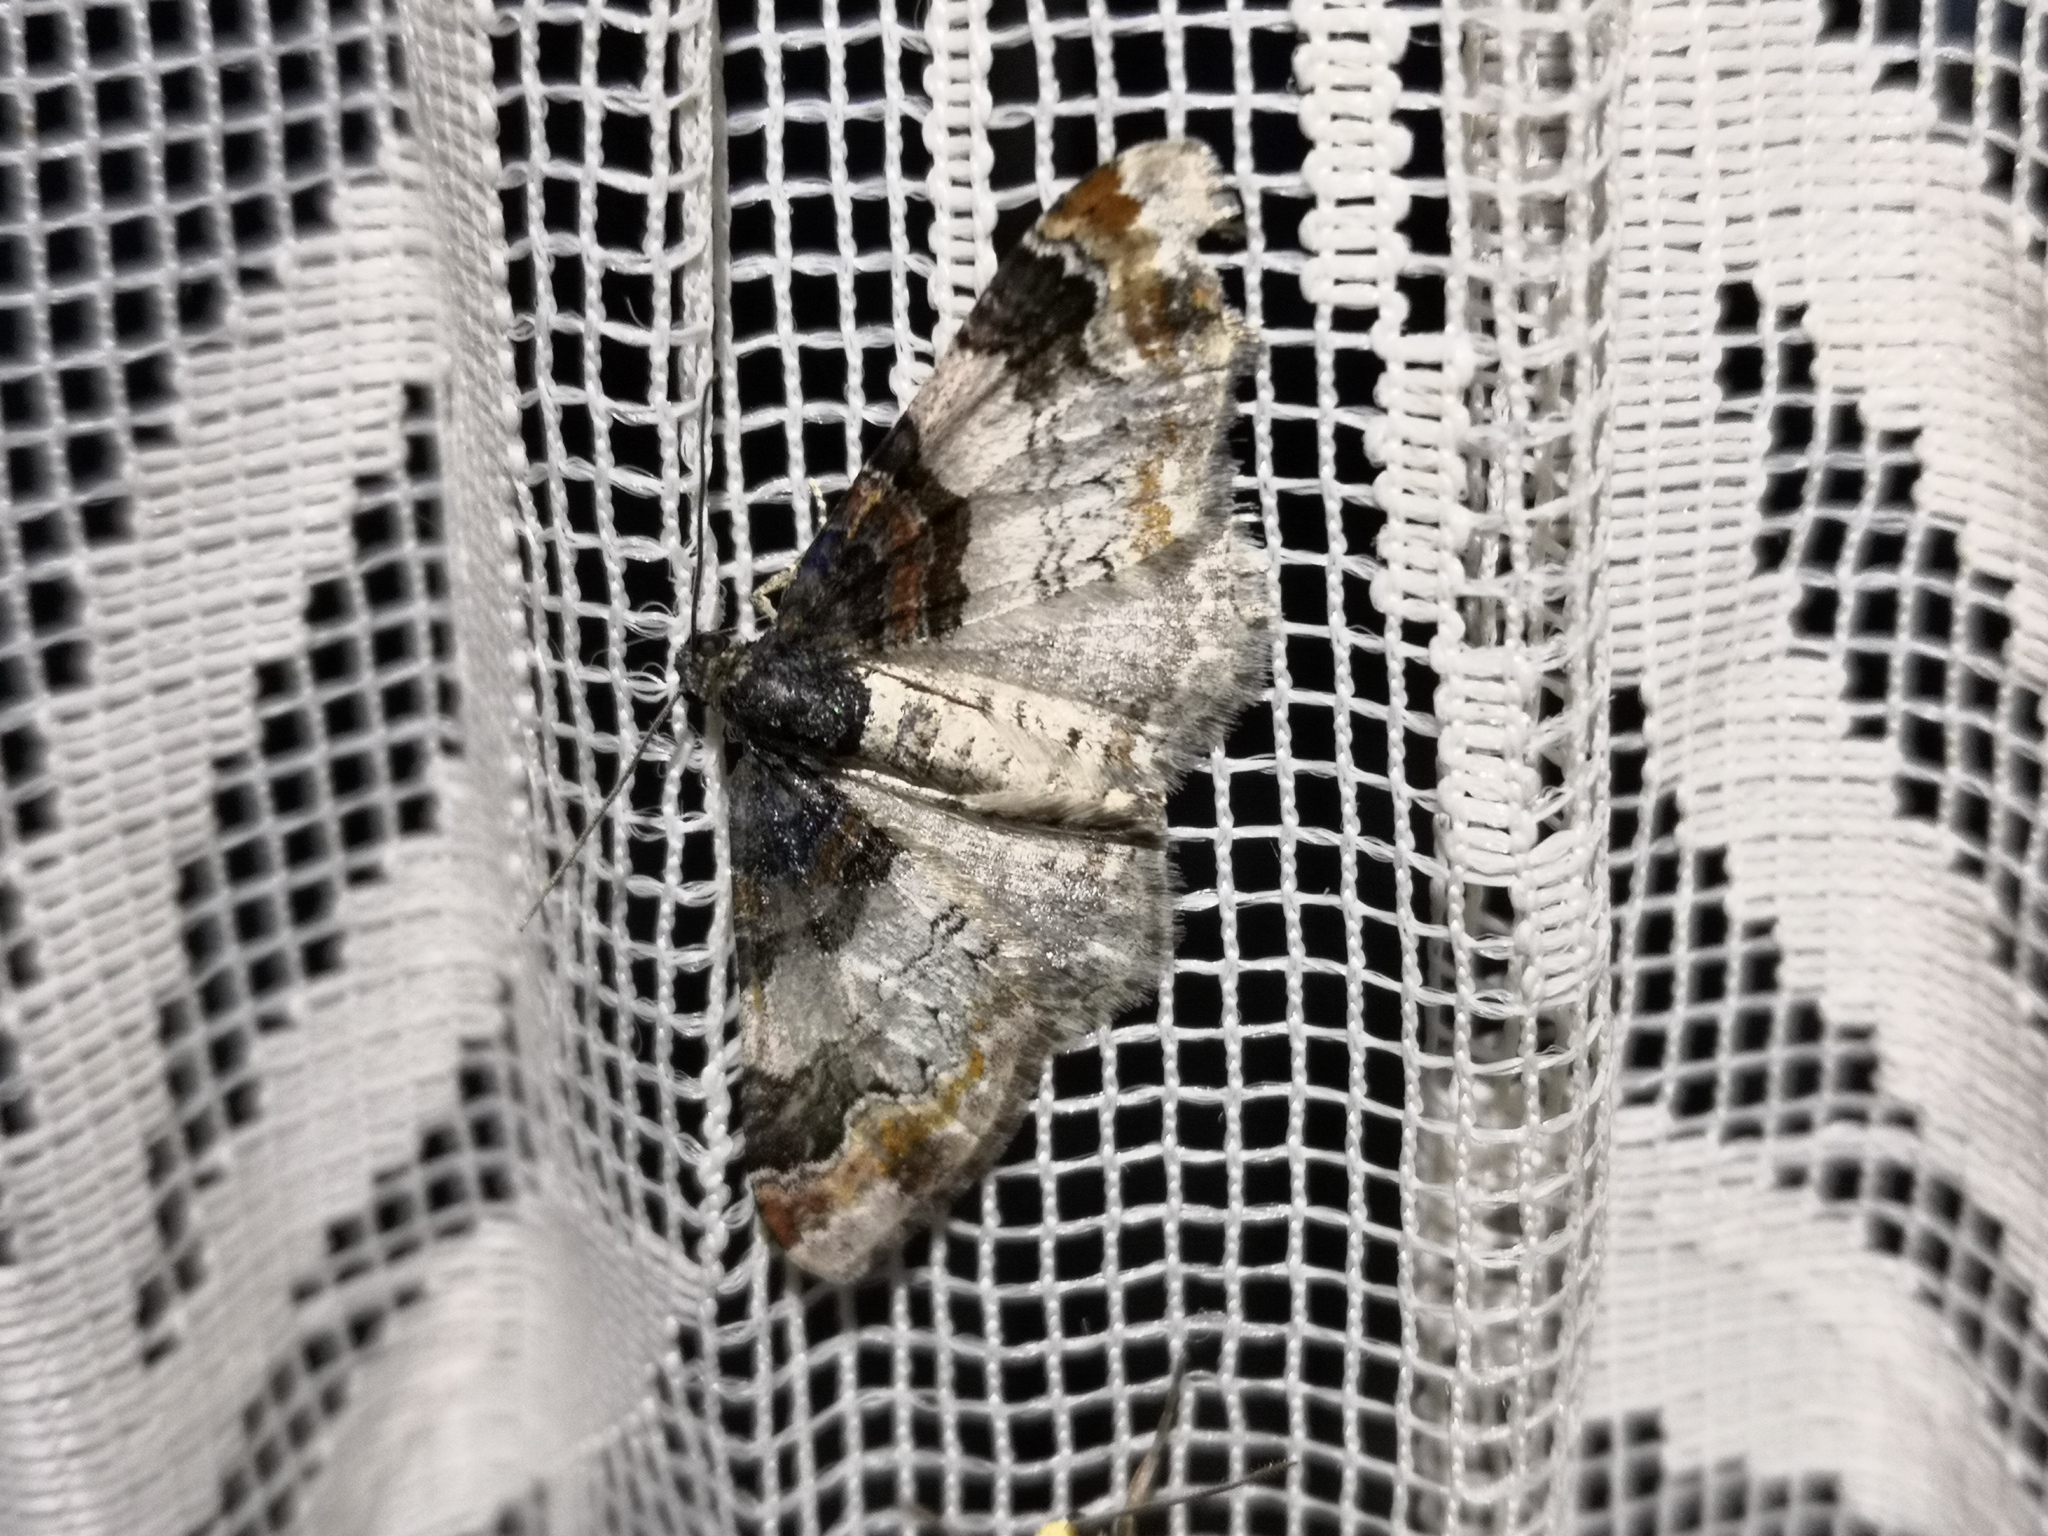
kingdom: Animalia
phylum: Arthropoda
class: Insecta
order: Lepidoptera
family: Geometridae
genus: Catarhoe
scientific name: Catarhoe cuculata
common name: Royal mantle
